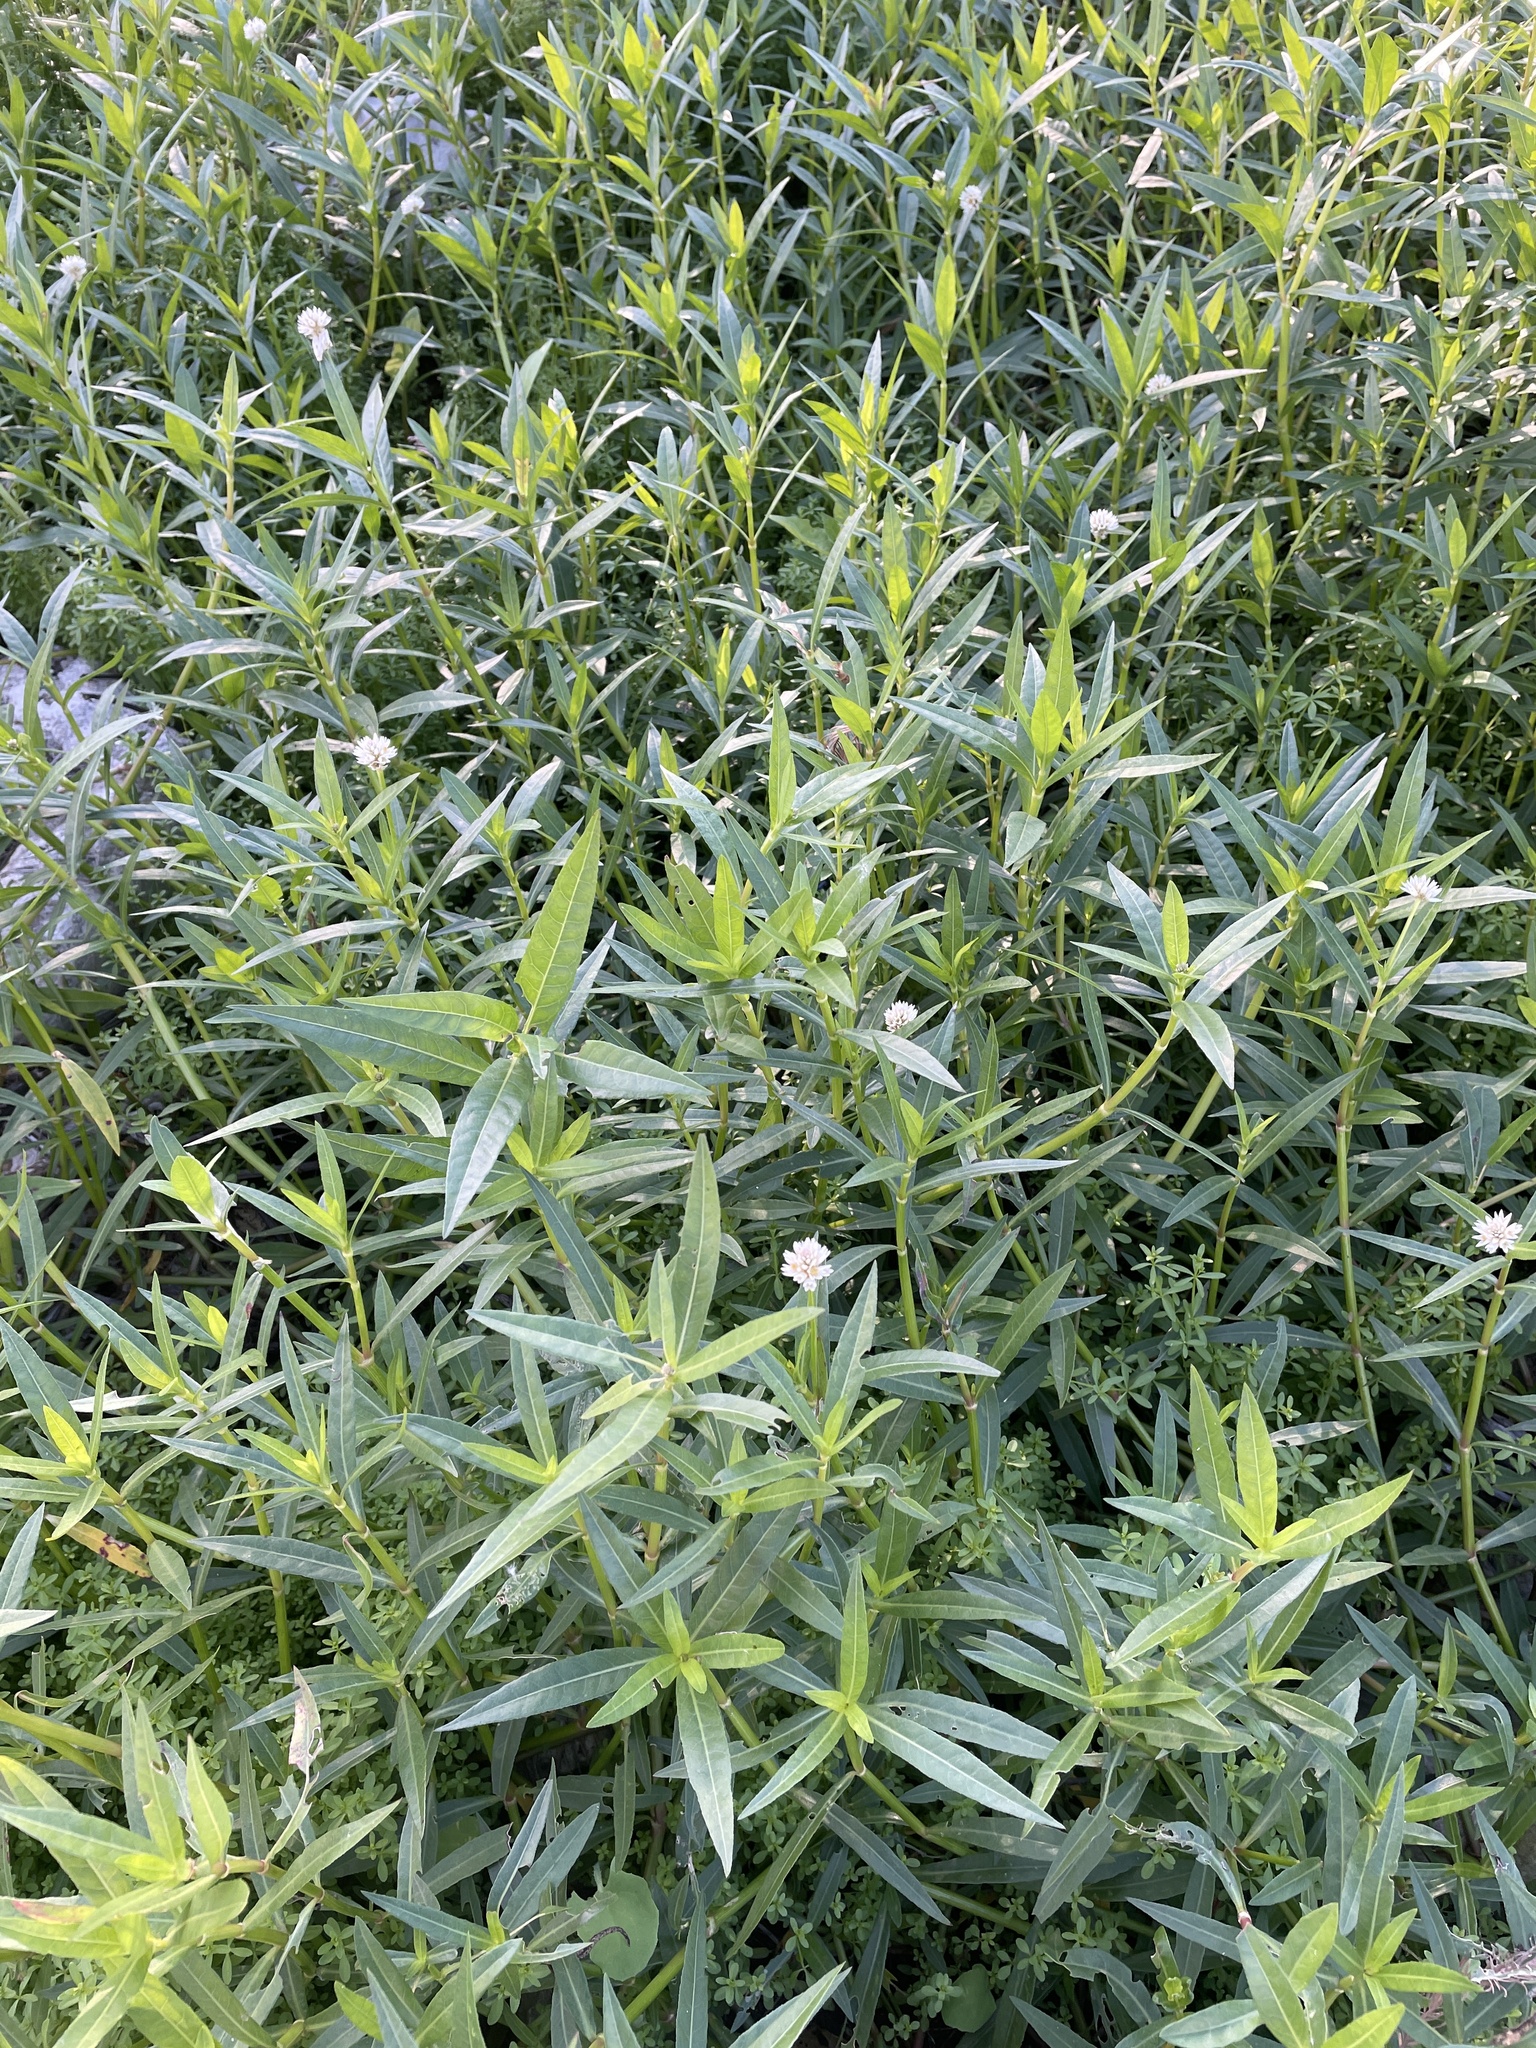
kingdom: Plantae
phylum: Tracheophyta
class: Magnoliopsida
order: Caryophyllales
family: Amaranthaceae
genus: Alternanthera
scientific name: Alternanthera philoxeroides
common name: Alligatorweed
